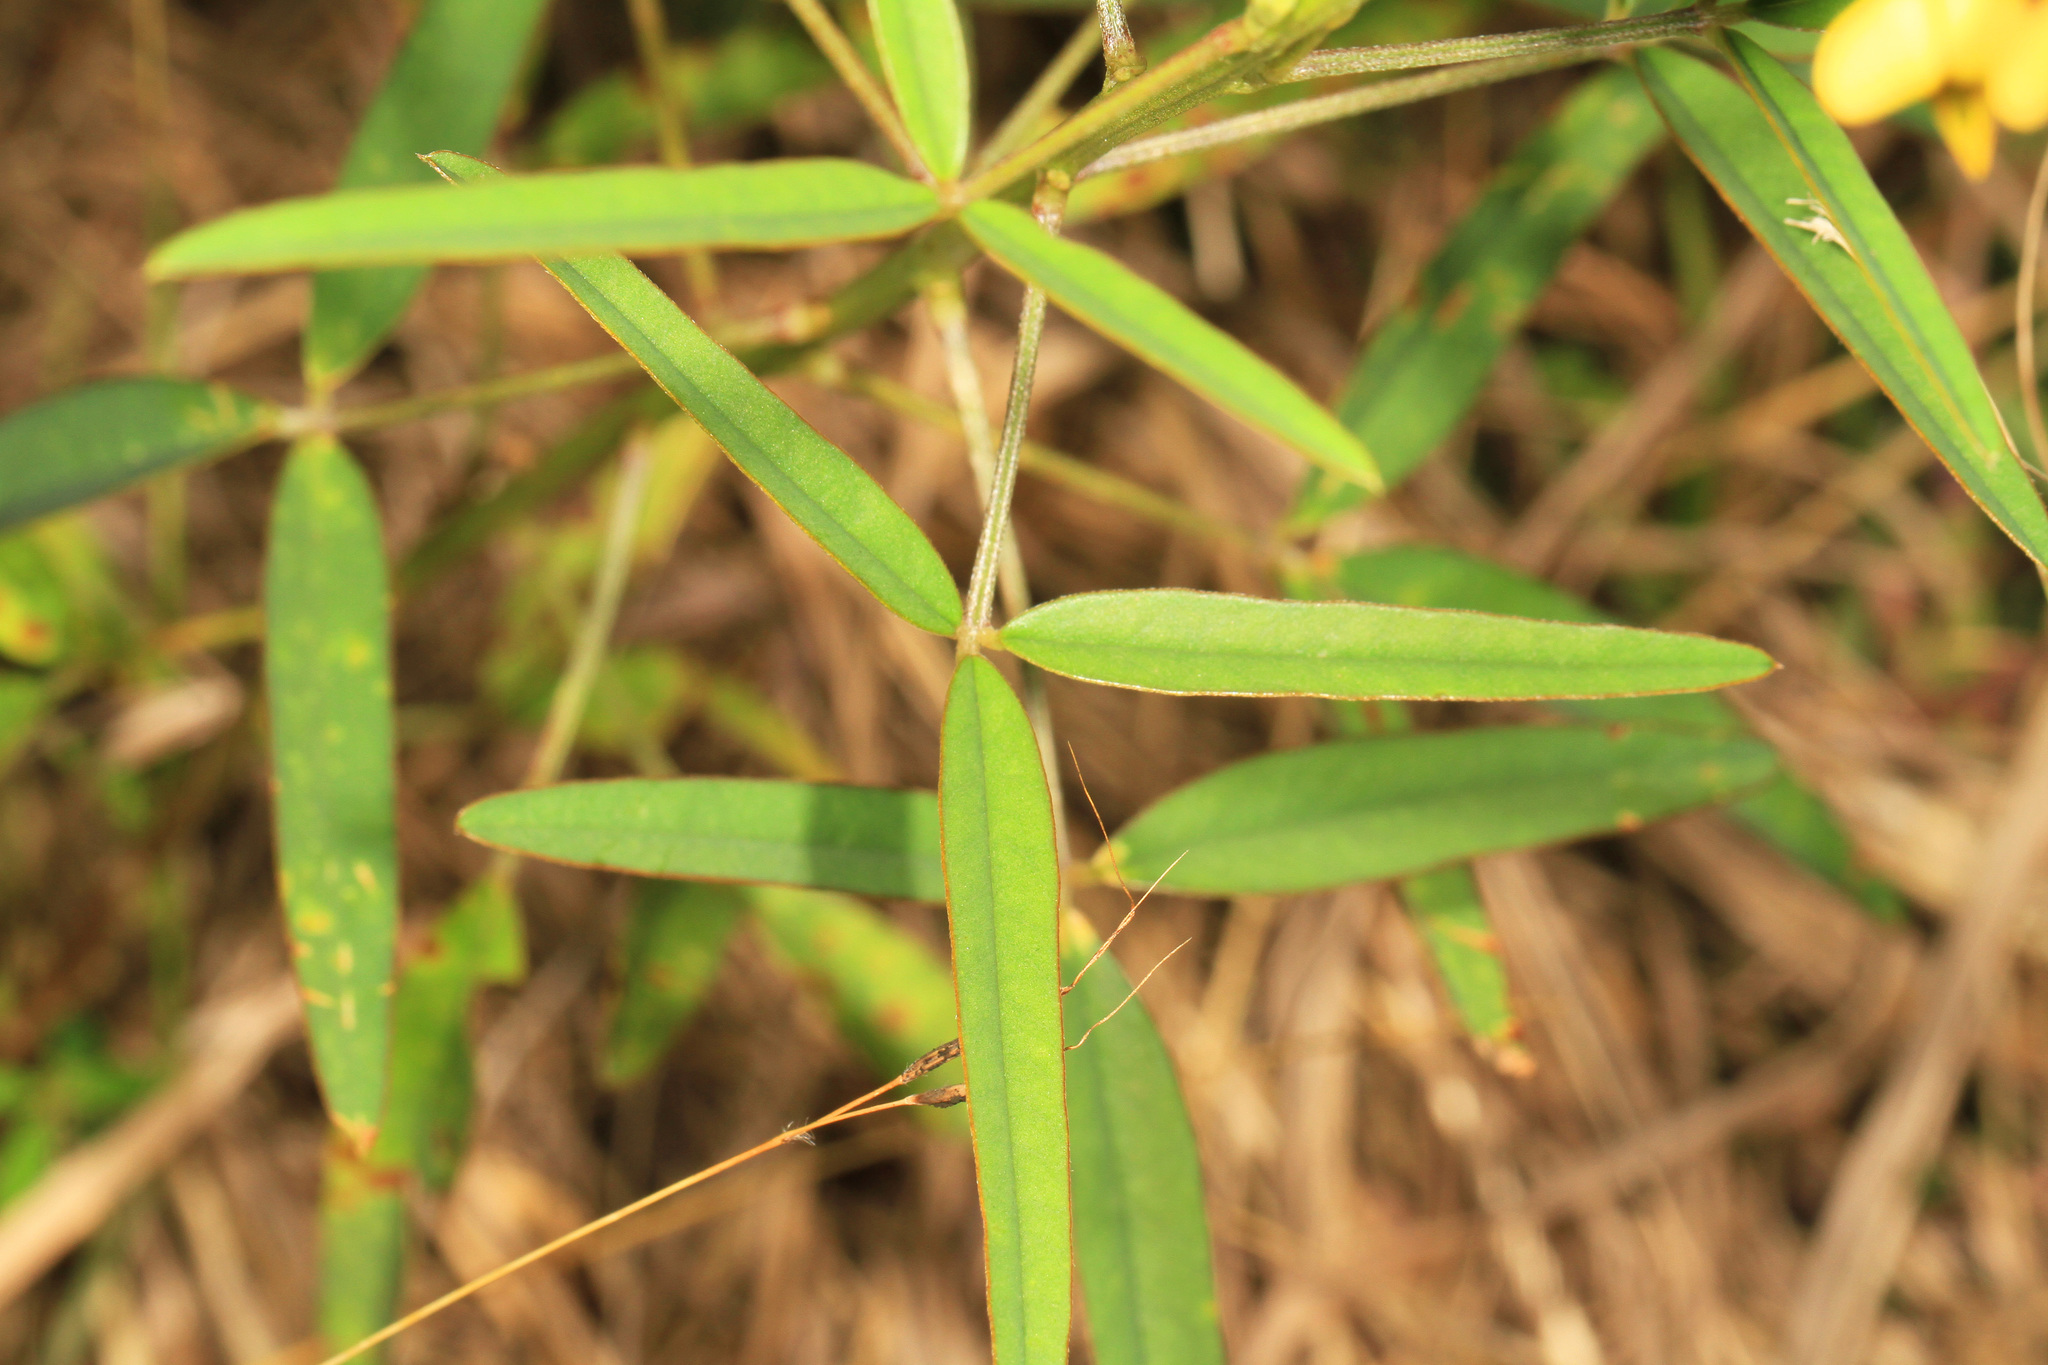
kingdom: Plantae
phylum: Tracheophyta
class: Magnoliopsida
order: Fabales
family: Fabaceae
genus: Crotalaria
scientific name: Crotalaria lanceolata
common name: Lanceleaf rattlebox
